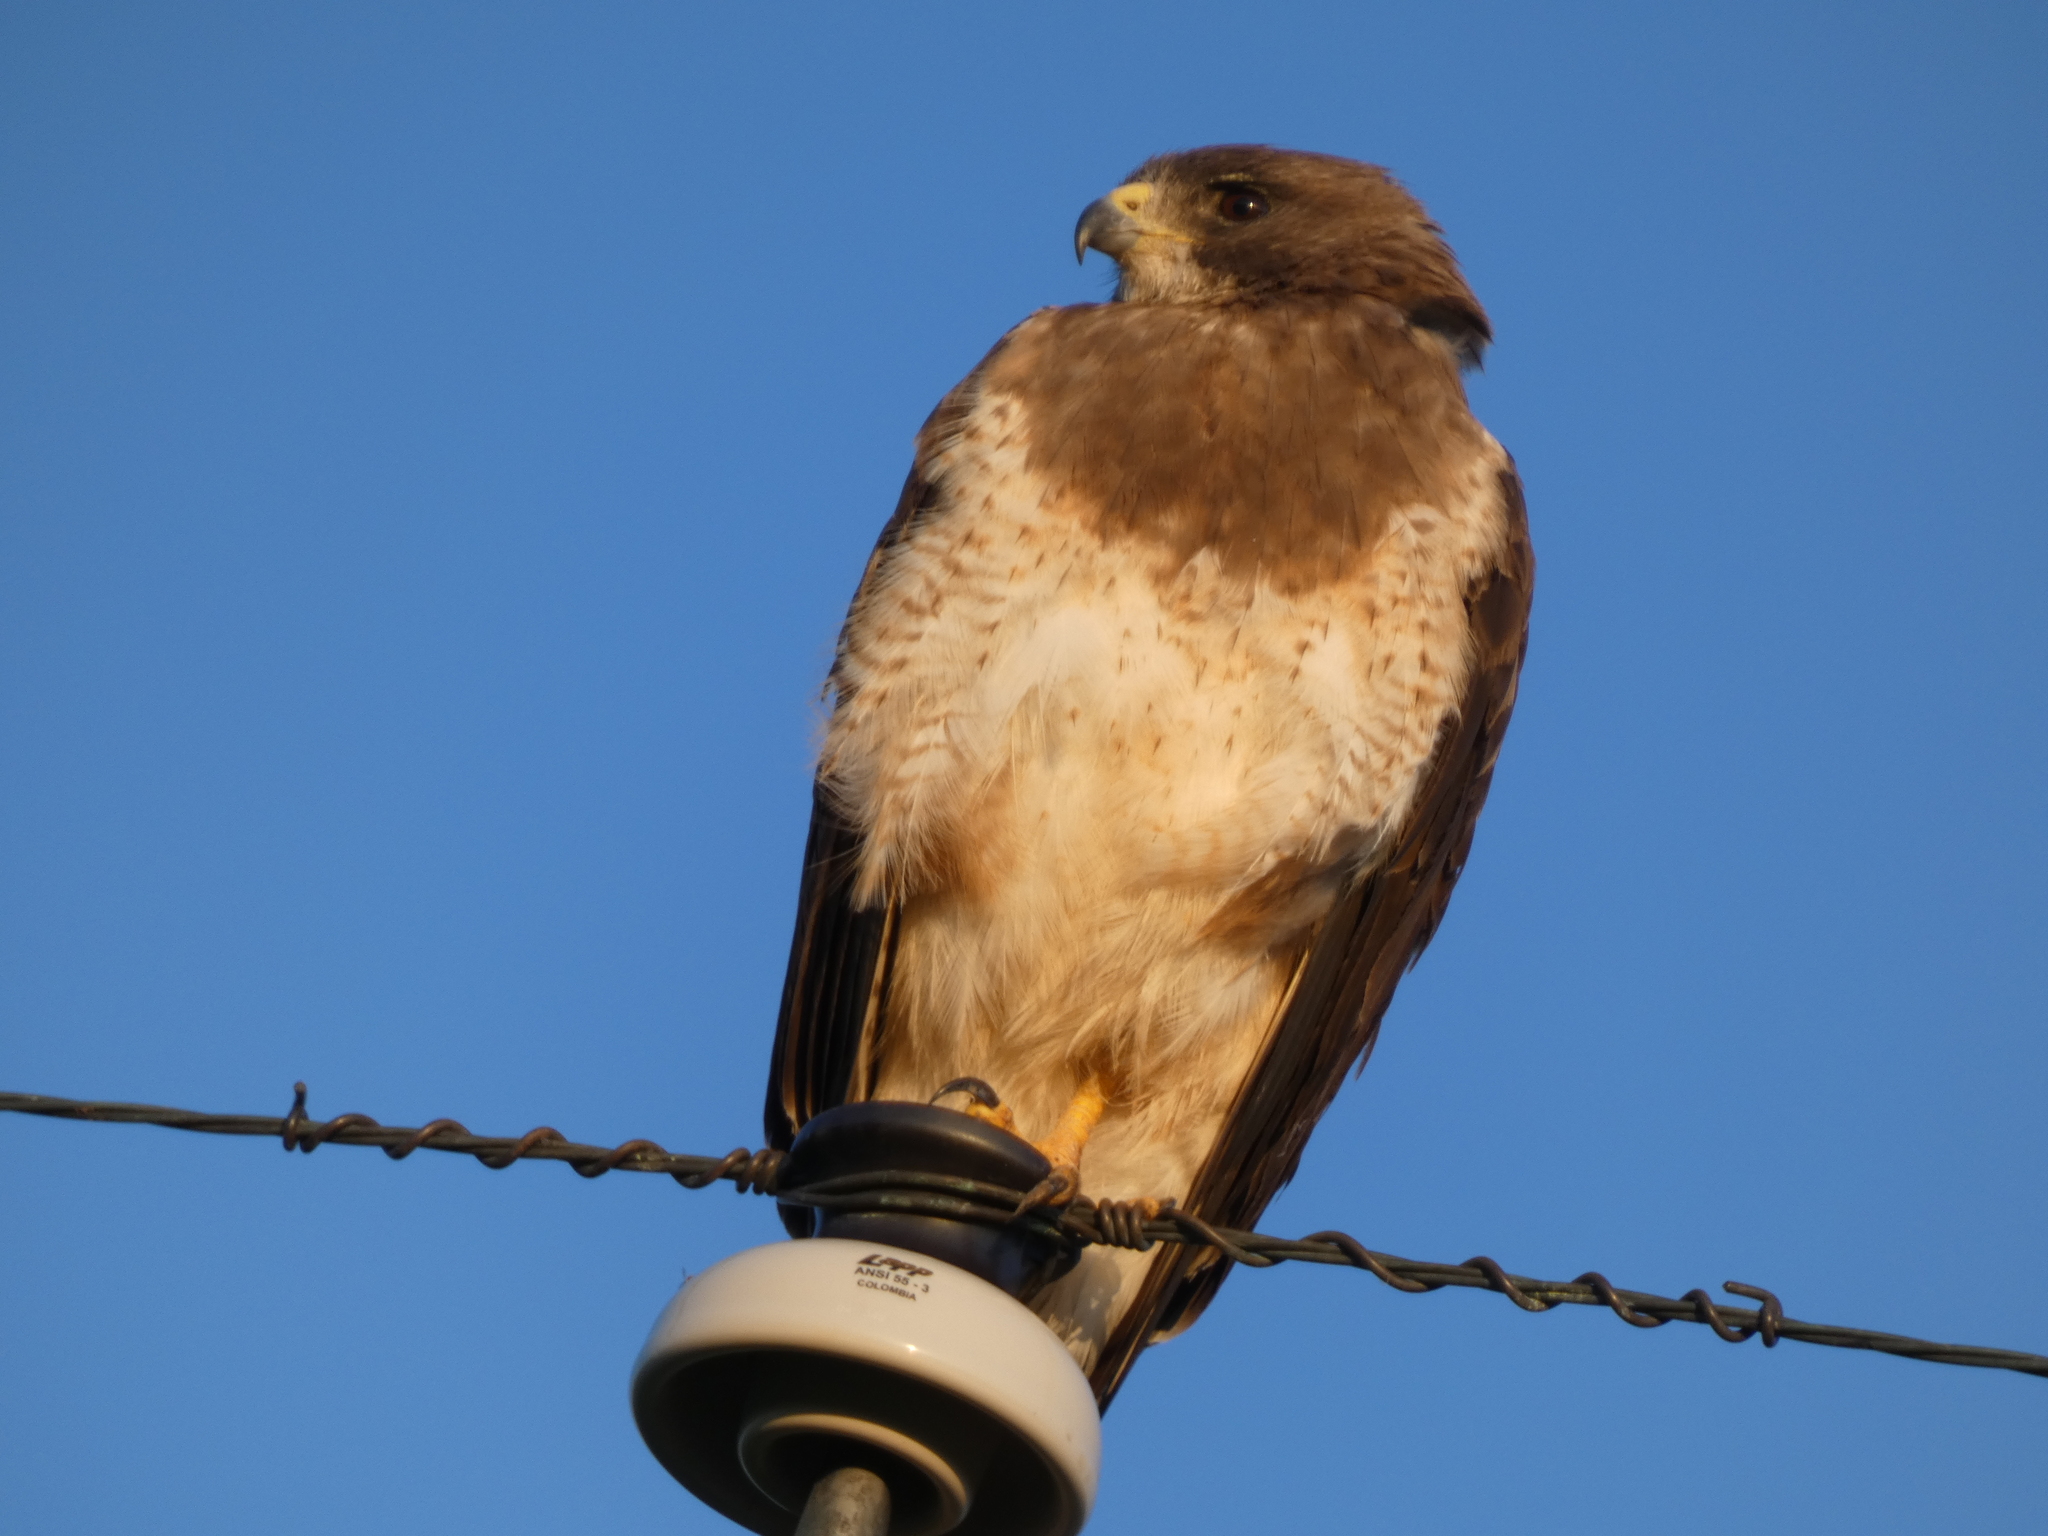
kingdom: Animalia
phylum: Chordata
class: Aves
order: Accipitriformes
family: Accipitridae
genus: Buteo
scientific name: Buteo swainsoni
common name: Swainson's hawk
